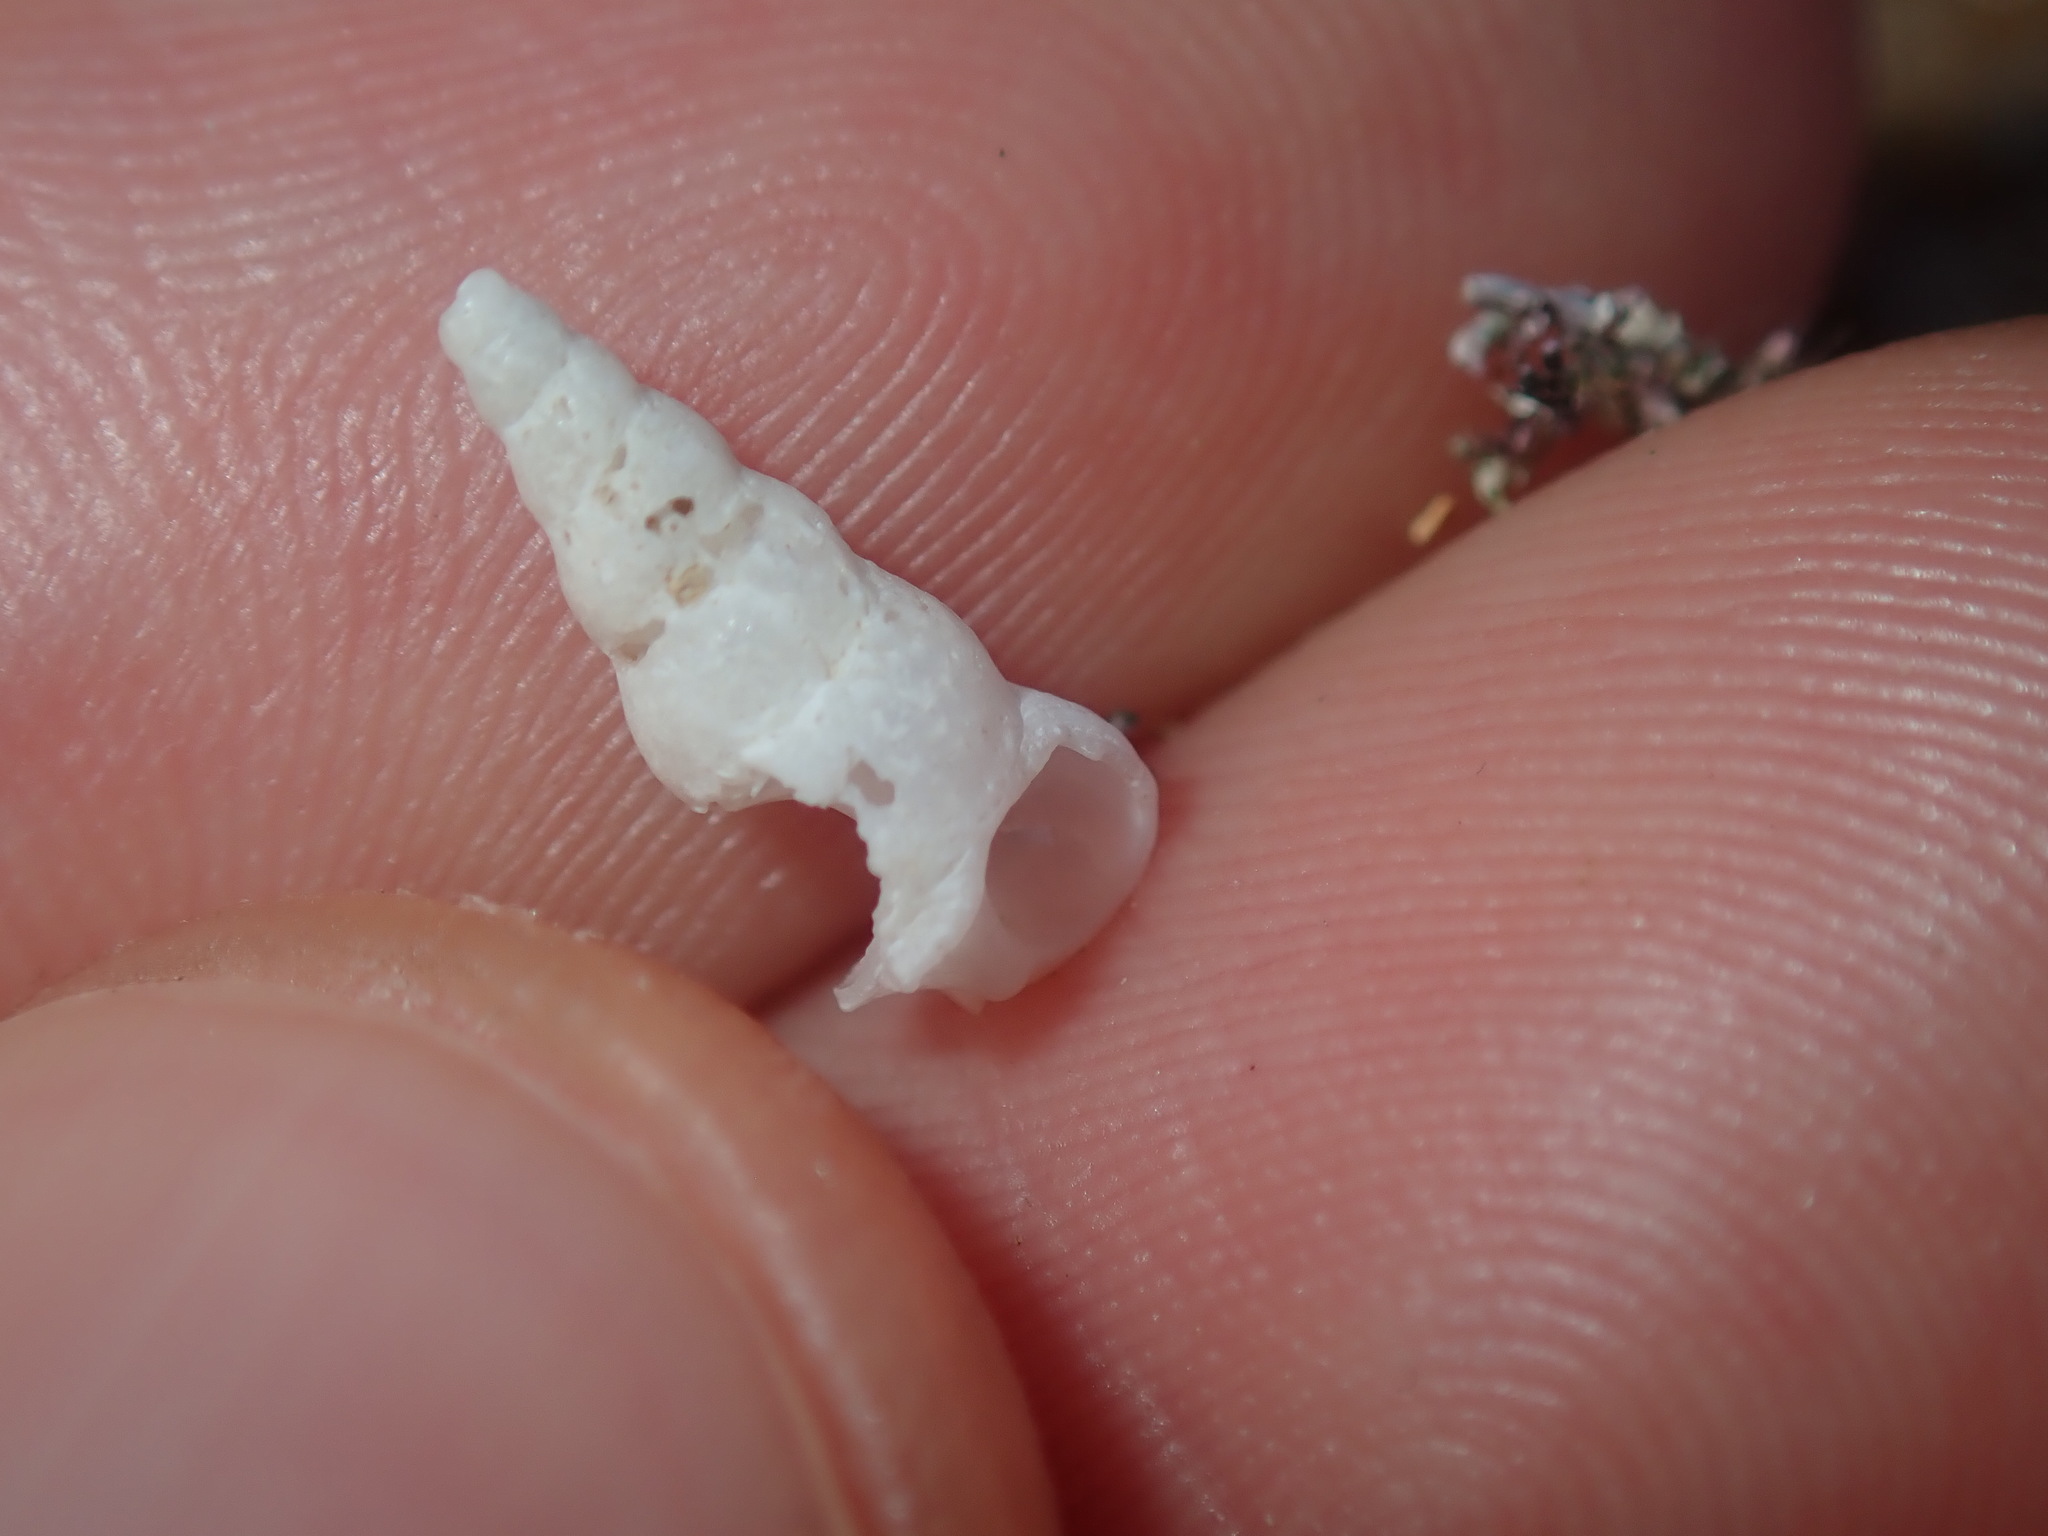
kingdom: Animalia
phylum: Mollusca
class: Gastropoda
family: Epitoniidae
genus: Opalia
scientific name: Opalia ballinensis
